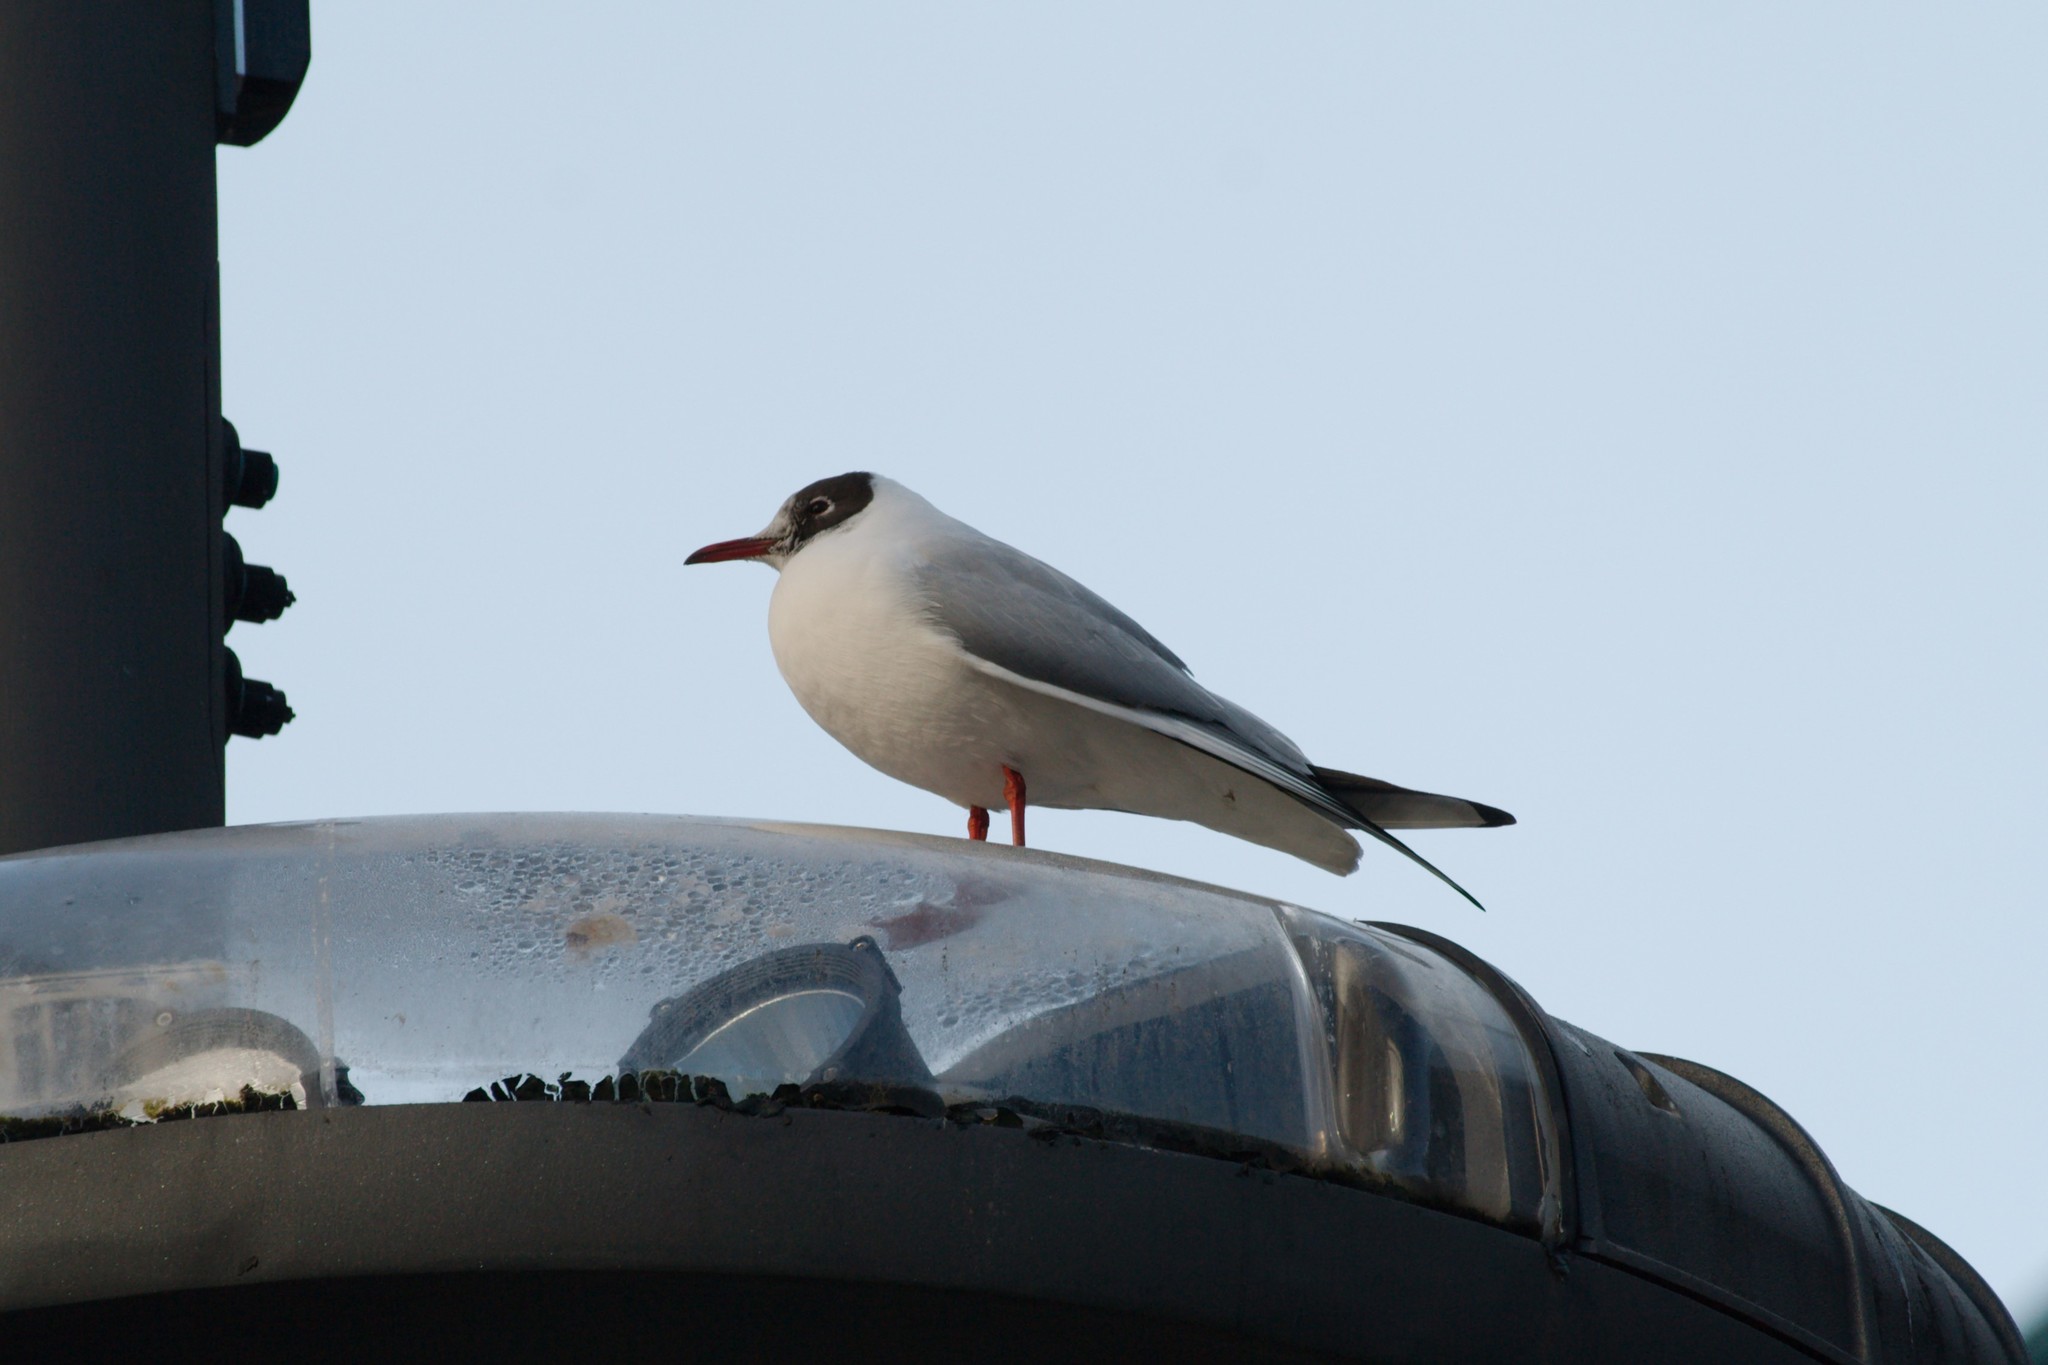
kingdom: Animalia
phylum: Chordata
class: Aves
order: Charadriiformes
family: Laridae
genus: Chroicocephalus
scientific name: Chroicocephalus ridibundus
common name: Black-headed gull
